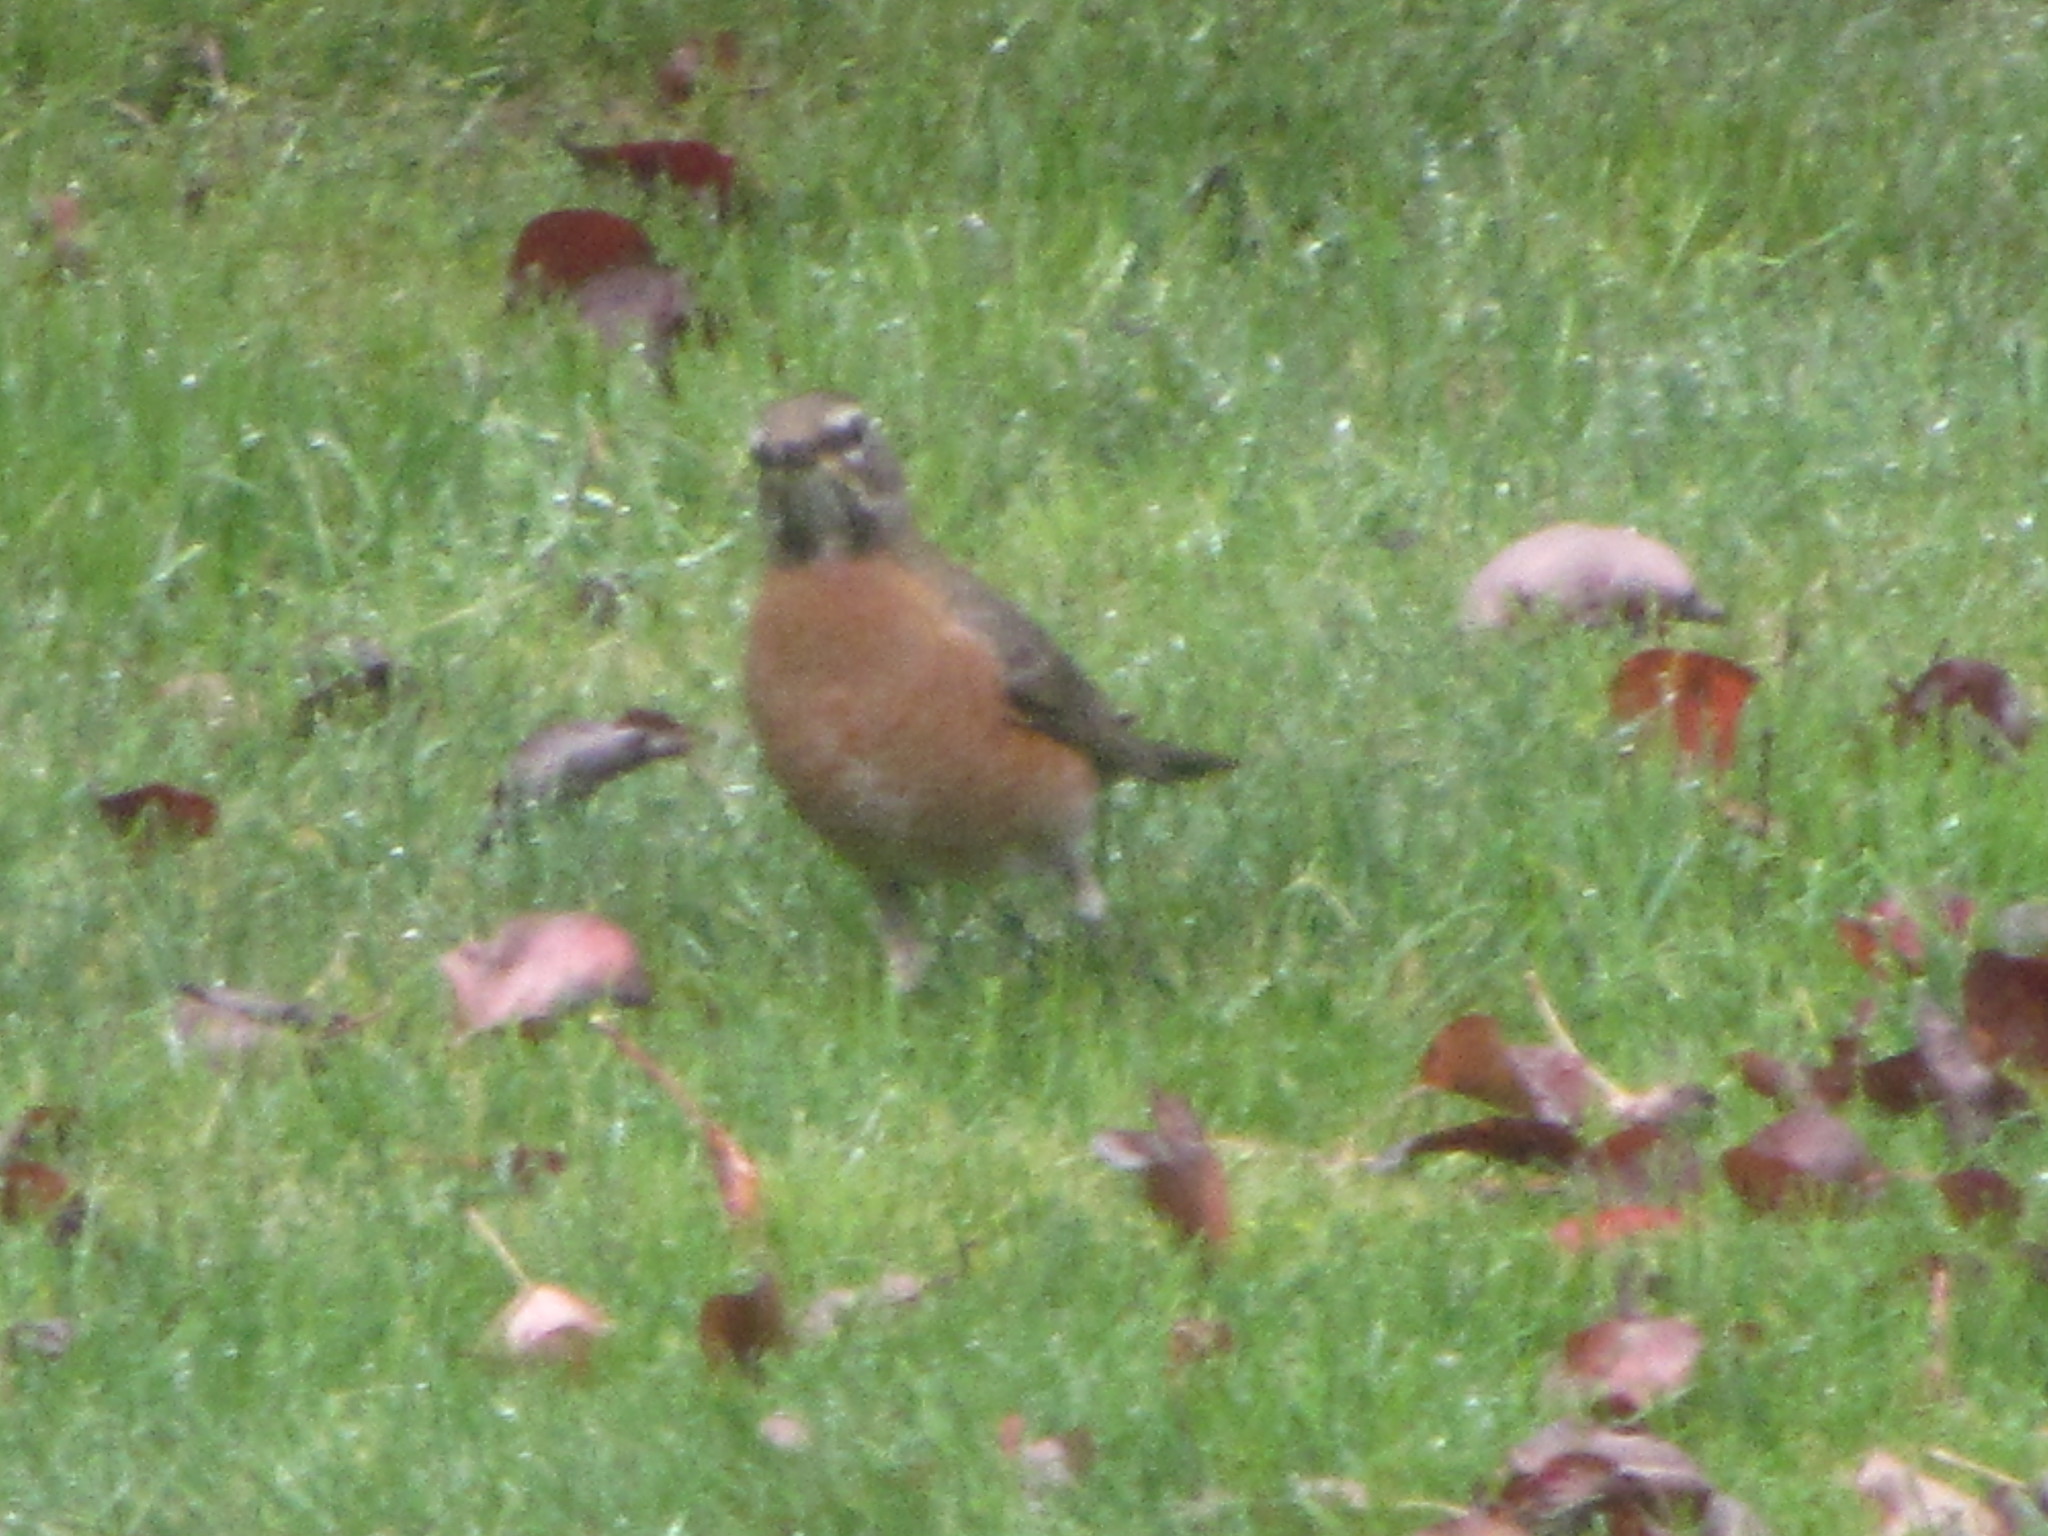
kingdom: Animalia
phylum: Chordata
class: Aves
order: Passeriformes
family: Turdidae
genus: Turdus
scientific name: Turdus migratorius
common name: American robin
